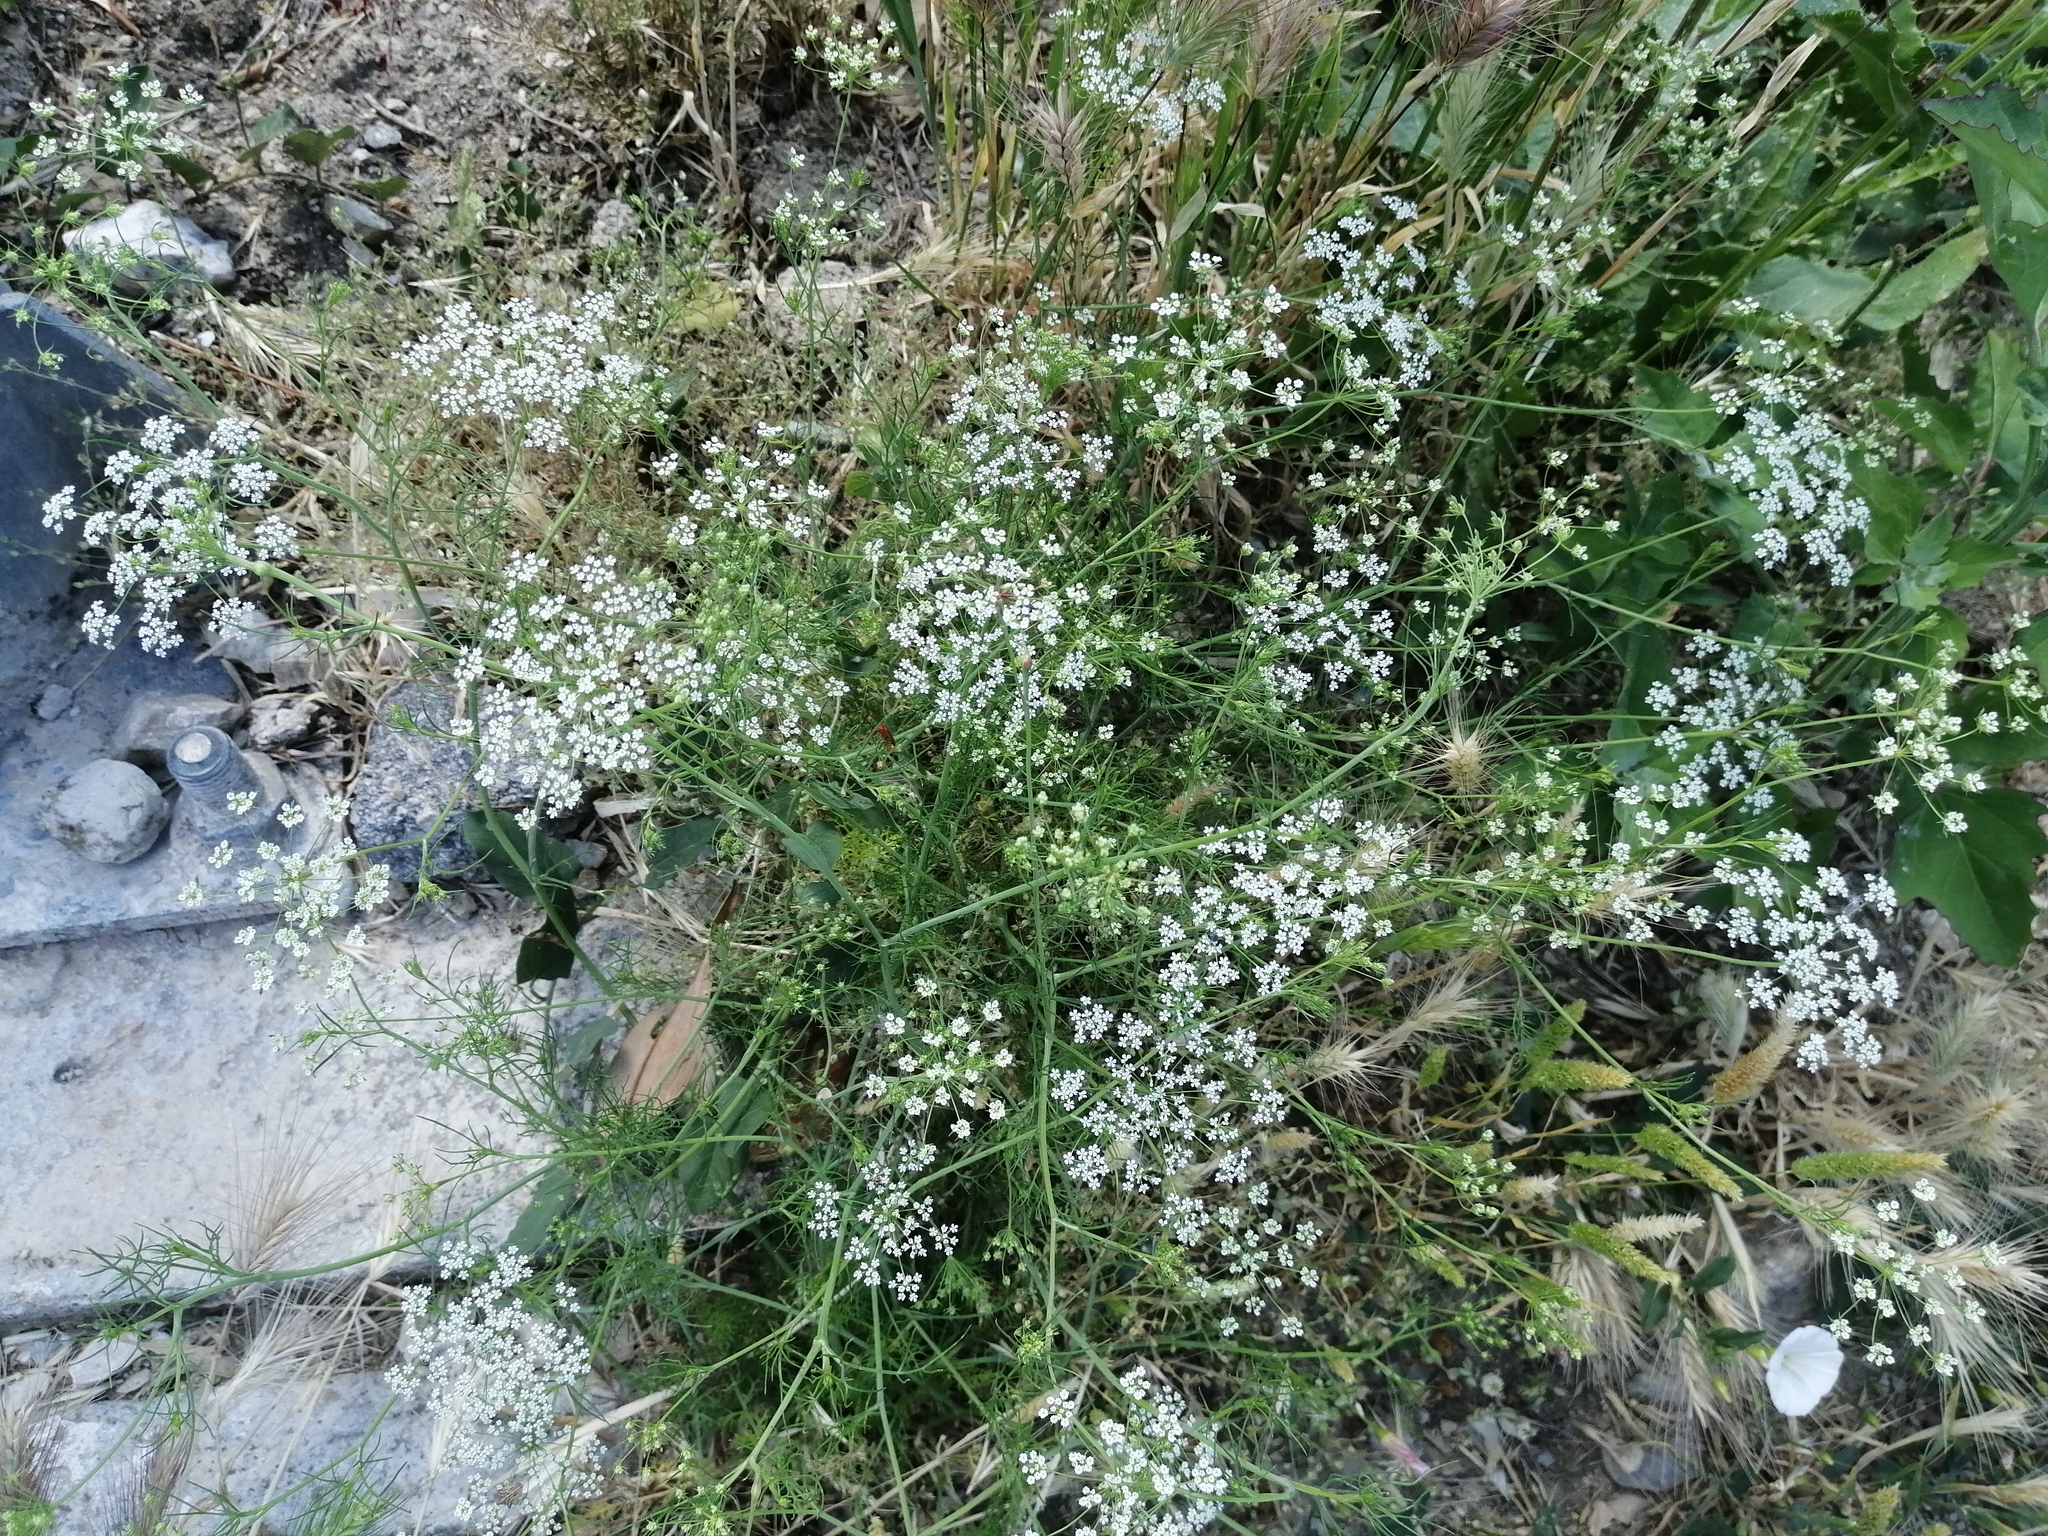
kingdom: Plantae
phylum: Tracheophyta
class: Magnoliopsida
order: Apiales
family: Apiaceae
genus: Seseli
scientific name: Seseli tortuosum
